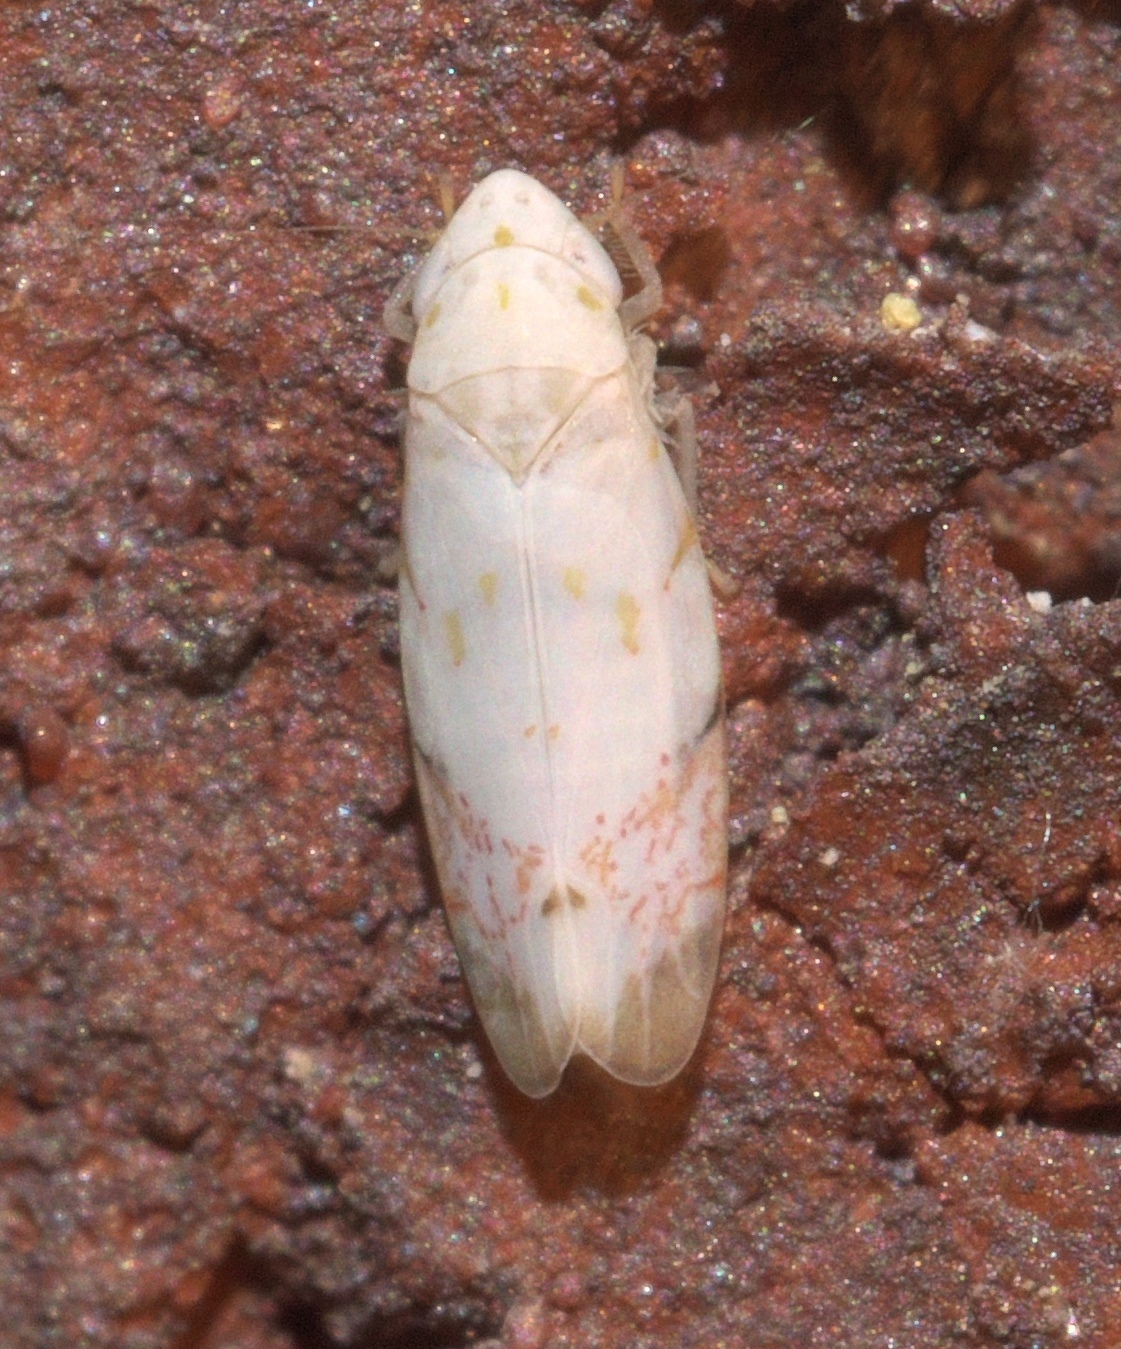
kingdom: Animalia
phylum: Arthropoda
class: Insecta
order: Hemiptera
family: Cicadellidae
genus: Eratoneura
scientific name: Eratoneura stephensoni
